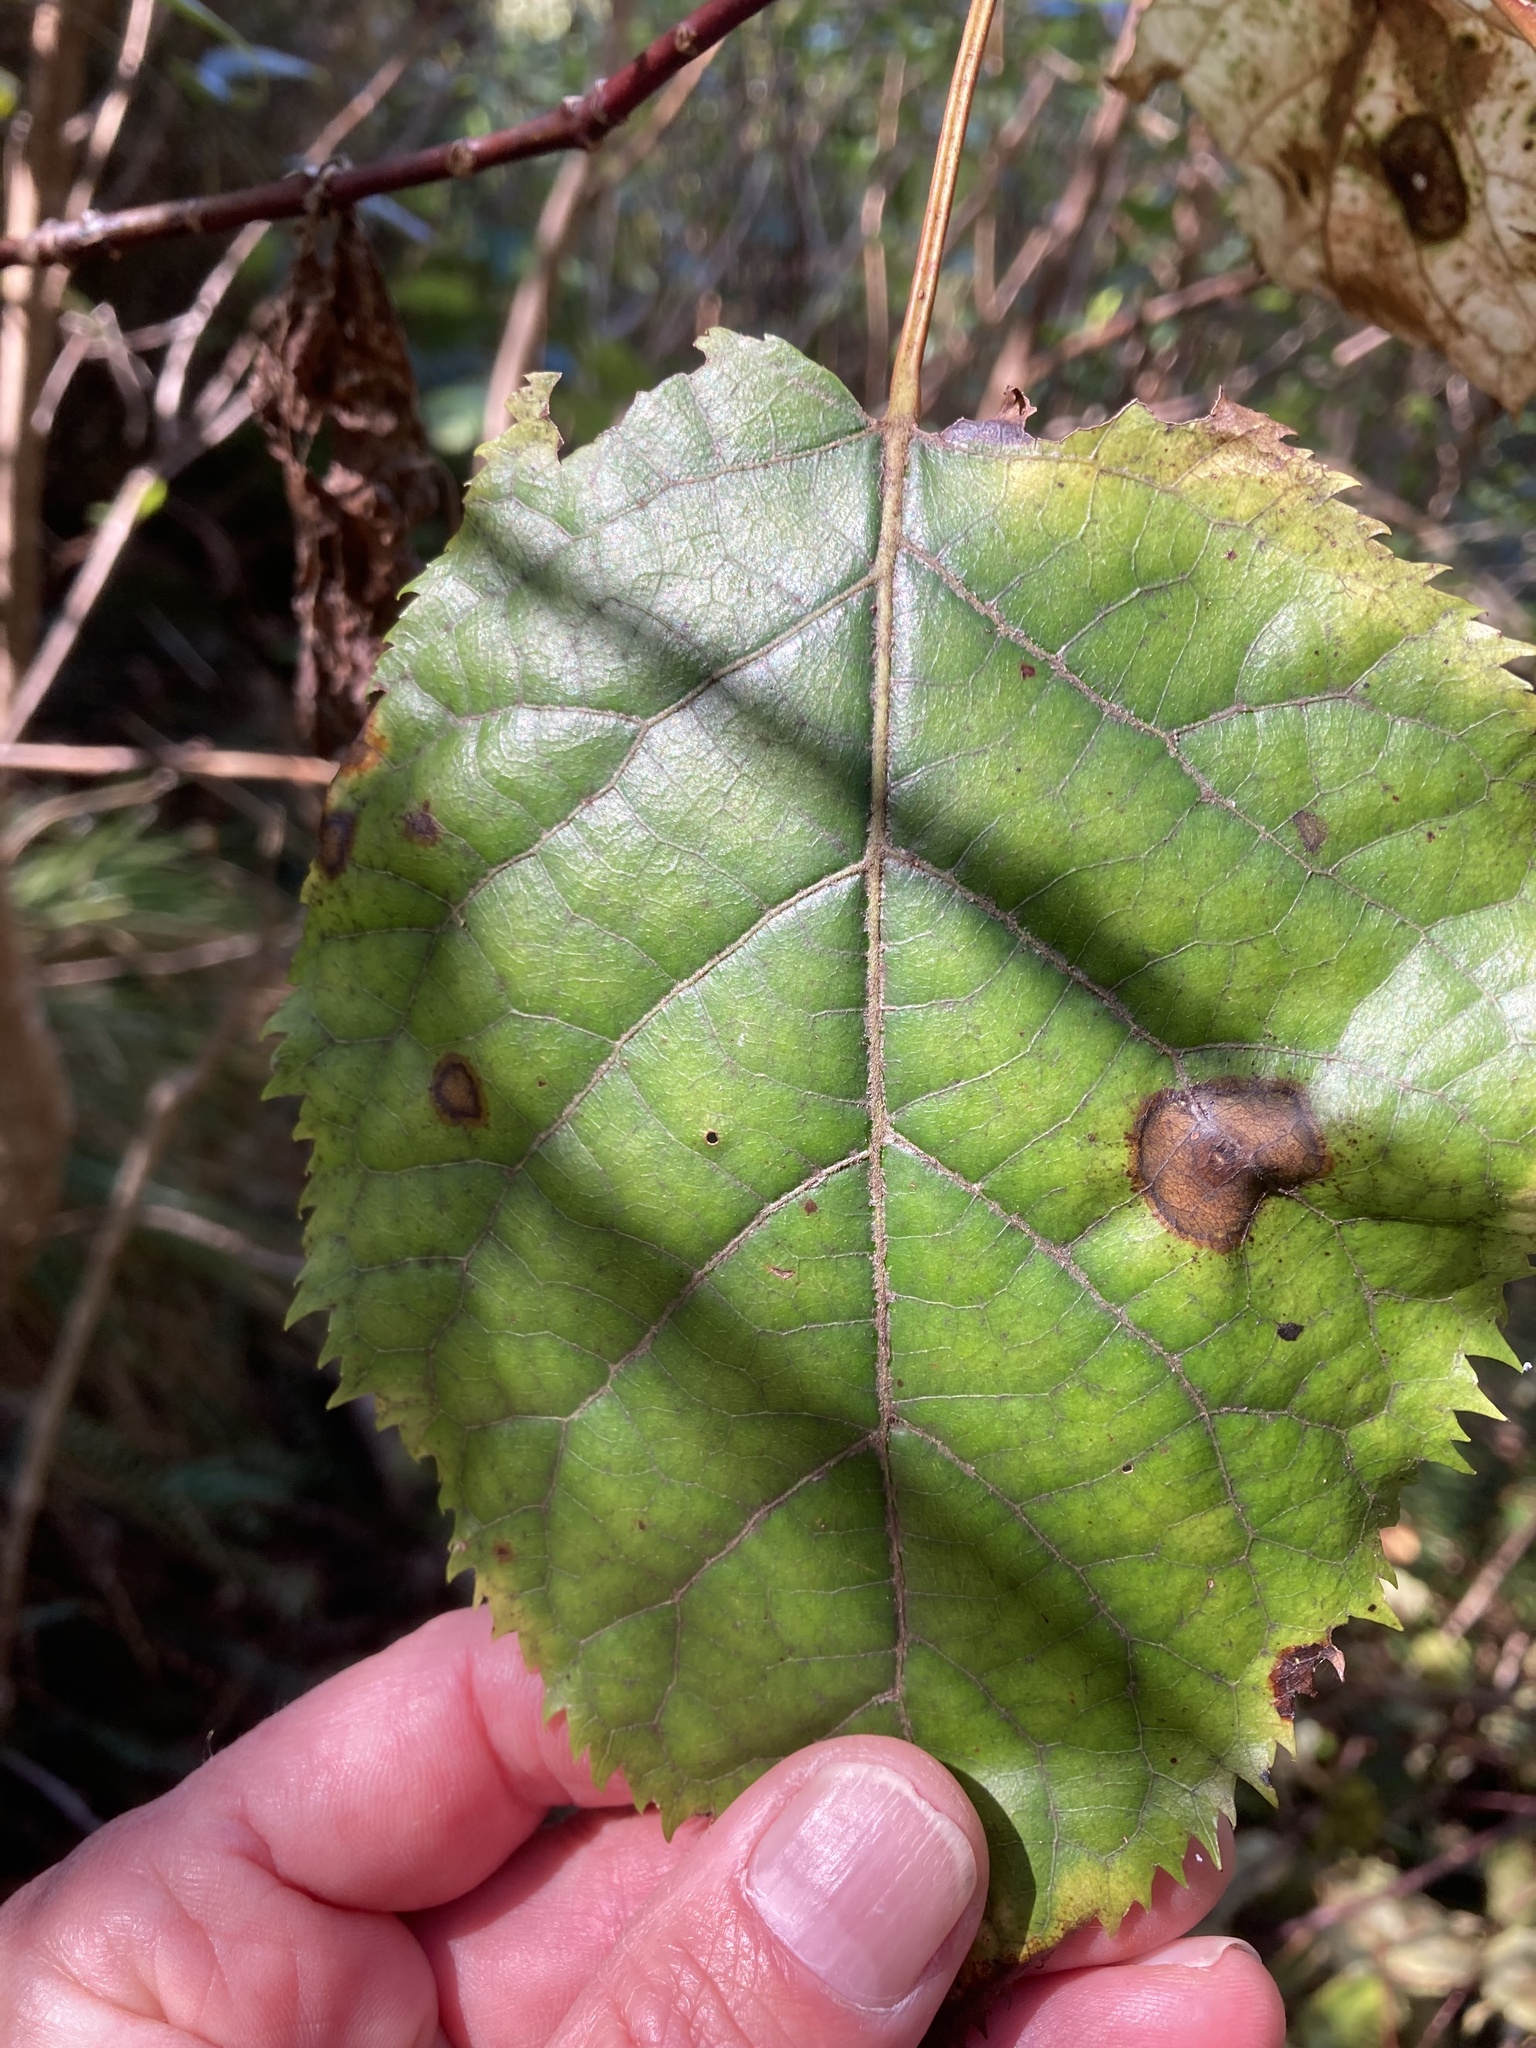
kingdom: Plantae
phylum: Tracheophyta
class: Magnoliopsida
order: Oxalidales
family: Elaeocarpaceae
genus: Aristotelia
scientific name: Aristotelia serrata
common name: New zealand wineberry
